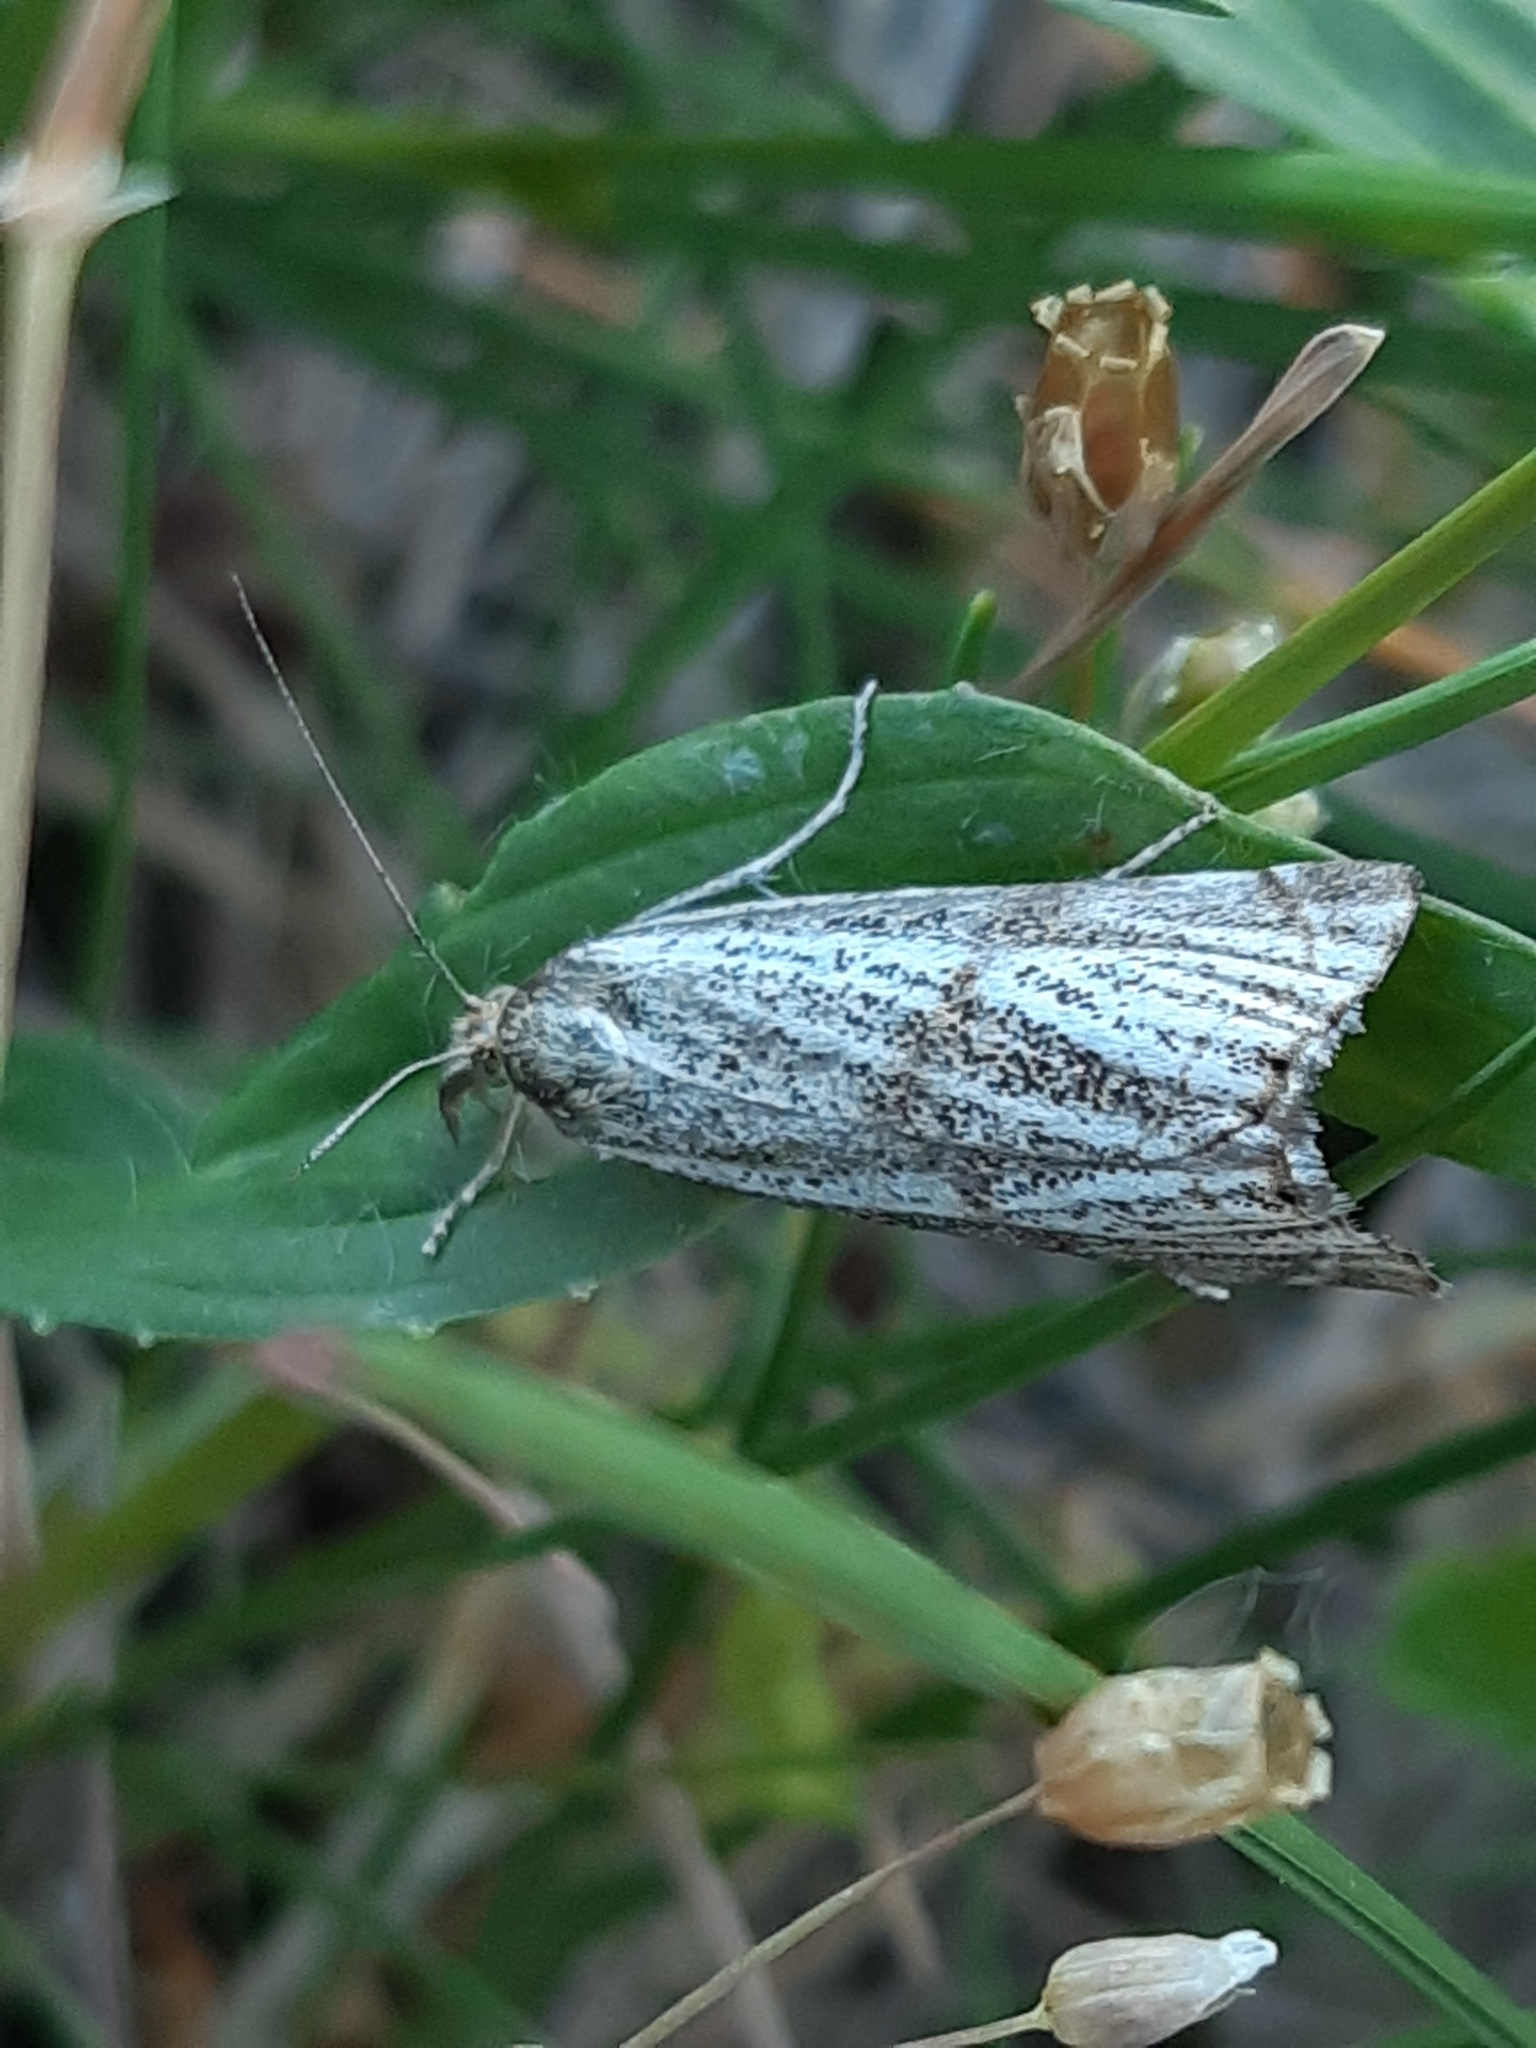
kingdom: Animalia
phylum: Arthropoda
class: Insecta
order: Lepidoptera
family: Crambidae
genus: Thisanotia
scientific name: Thisanotia chrysonuchella
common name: Powdered grass-veneer
